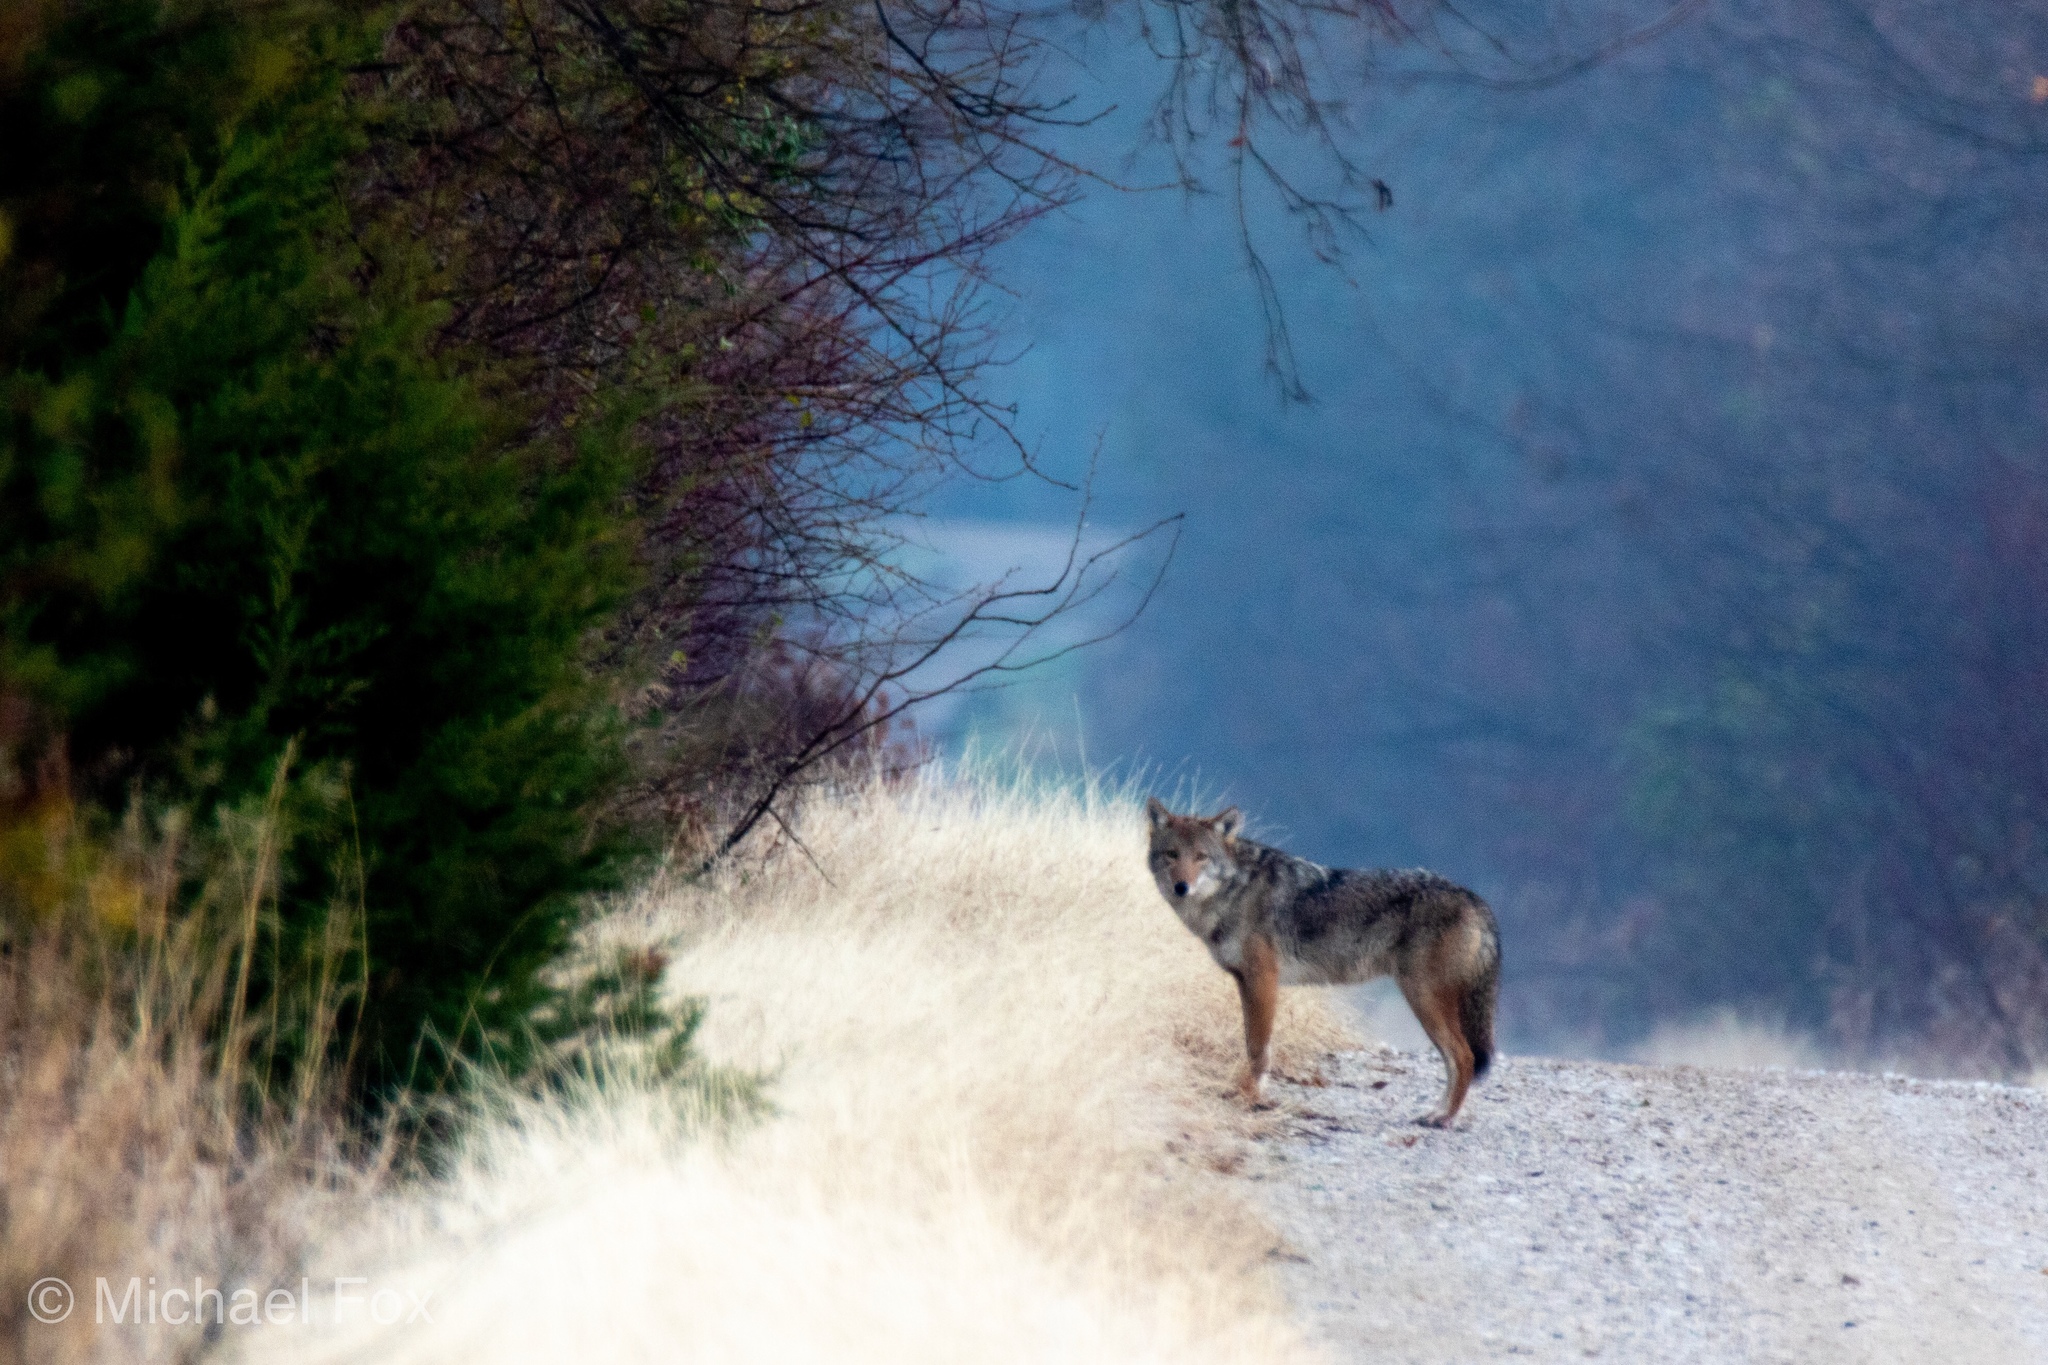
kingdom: Animalia
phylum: Chordata
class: Mammalia
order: Carnivora
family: Canidae
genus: Canis
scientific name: Canis latrans
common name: Coyote
